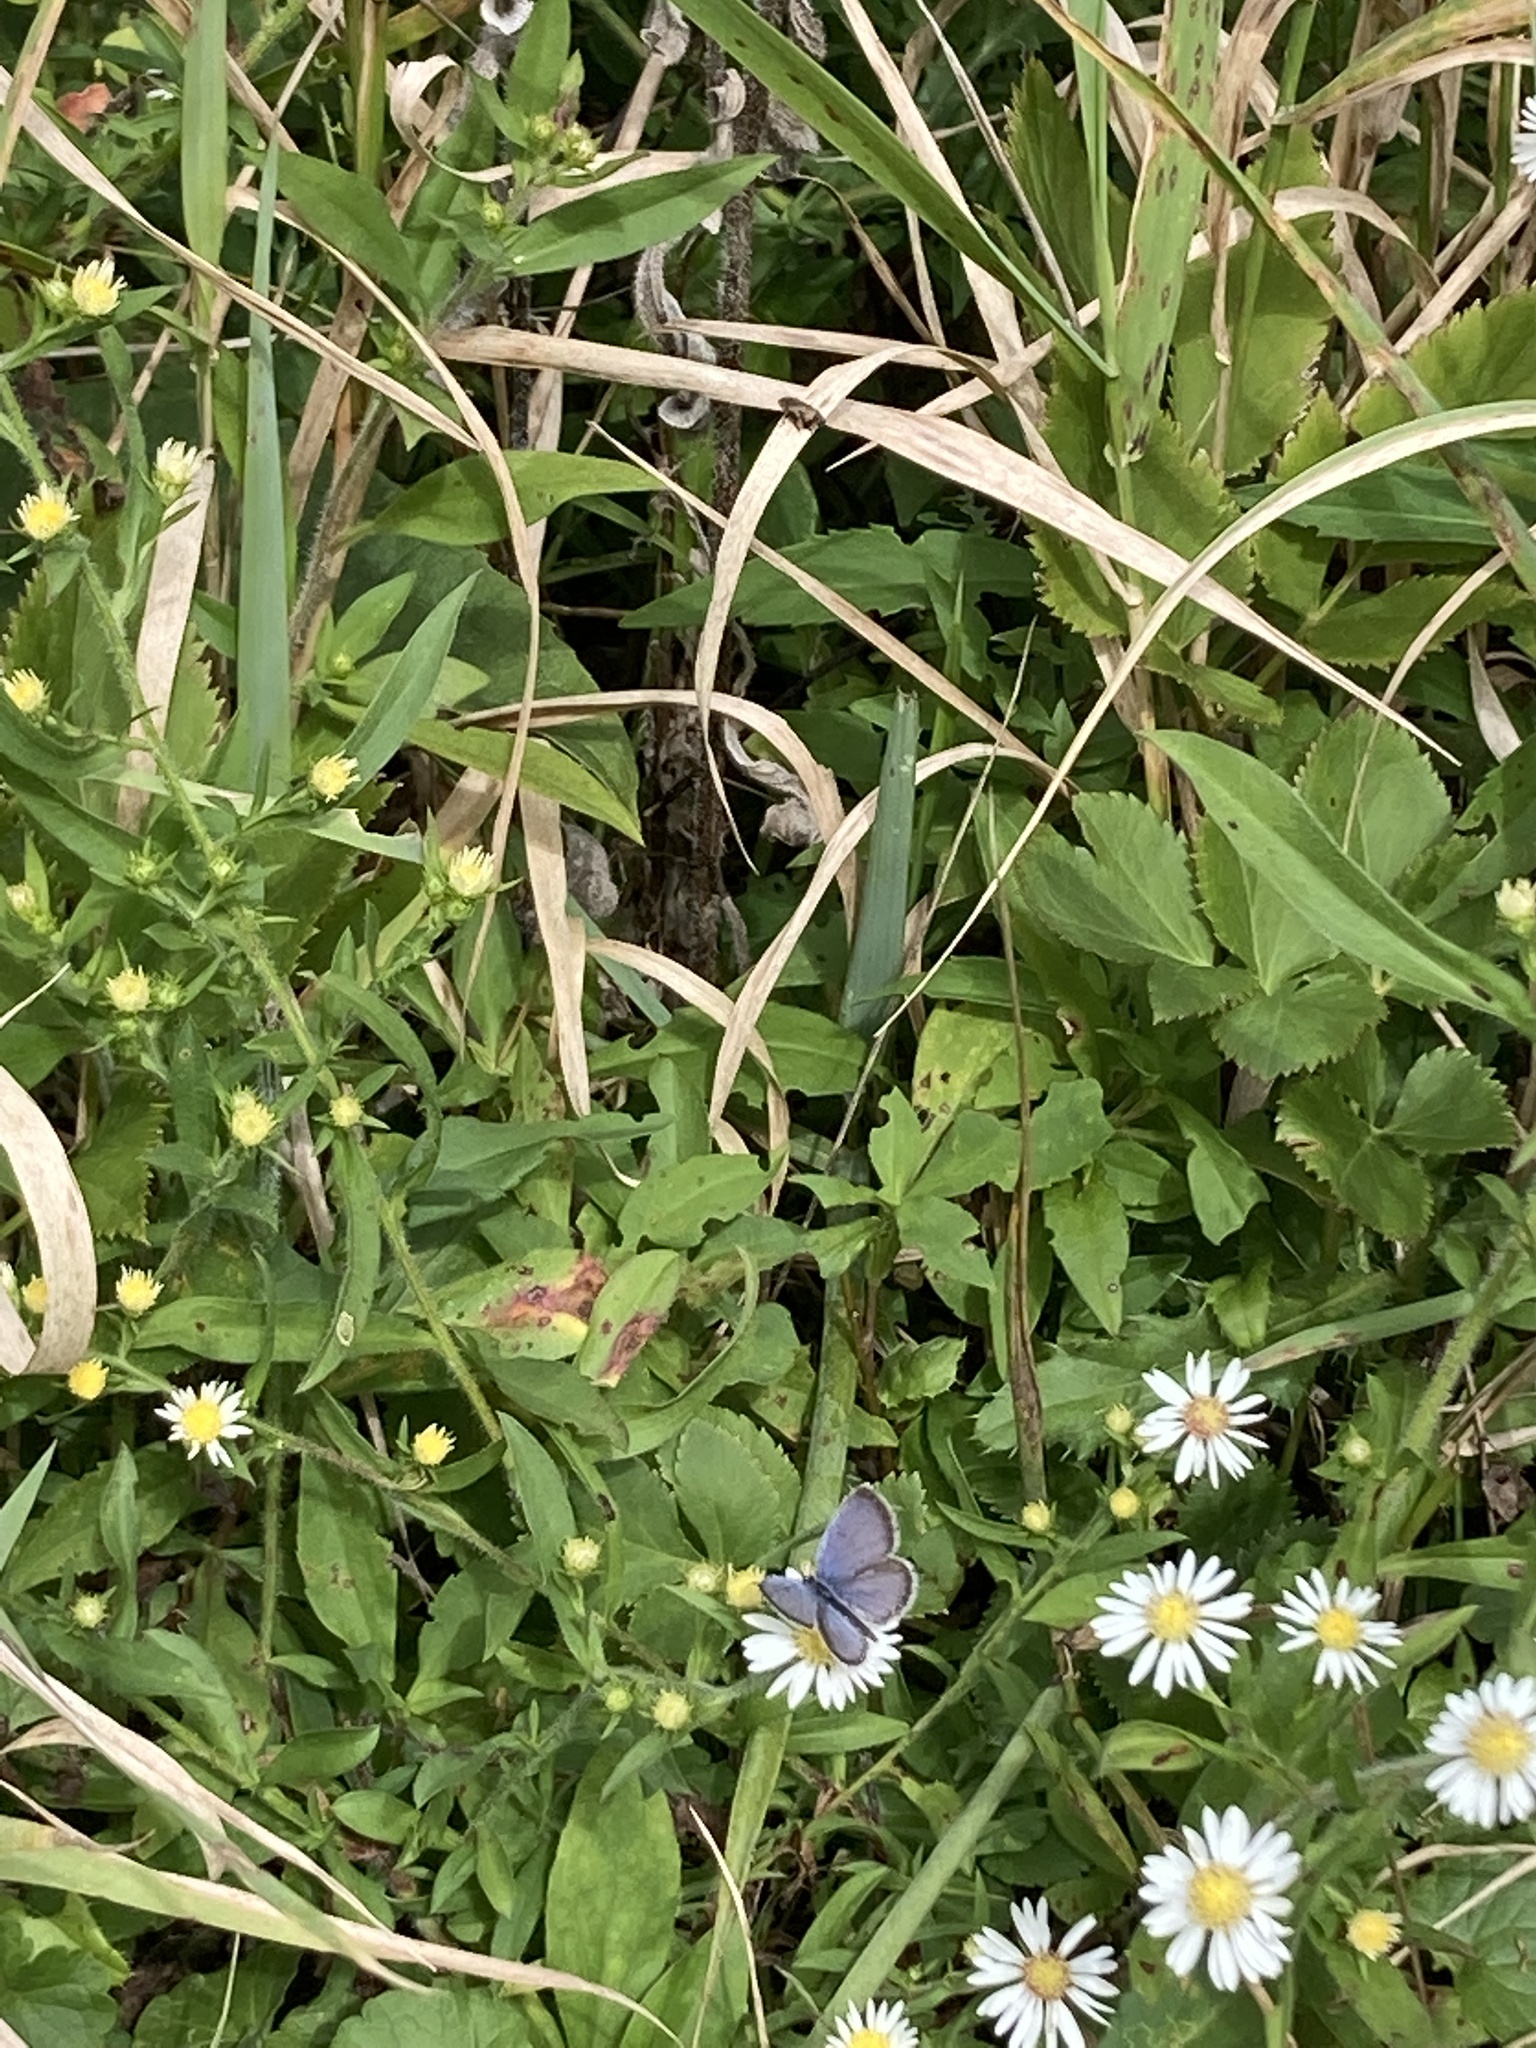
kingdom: Animalia
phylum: Arthropoda
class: Insecta
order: Lepidoptera
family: Lycaenidae
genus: Elkalyce
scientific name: Elkalyce comyntas
